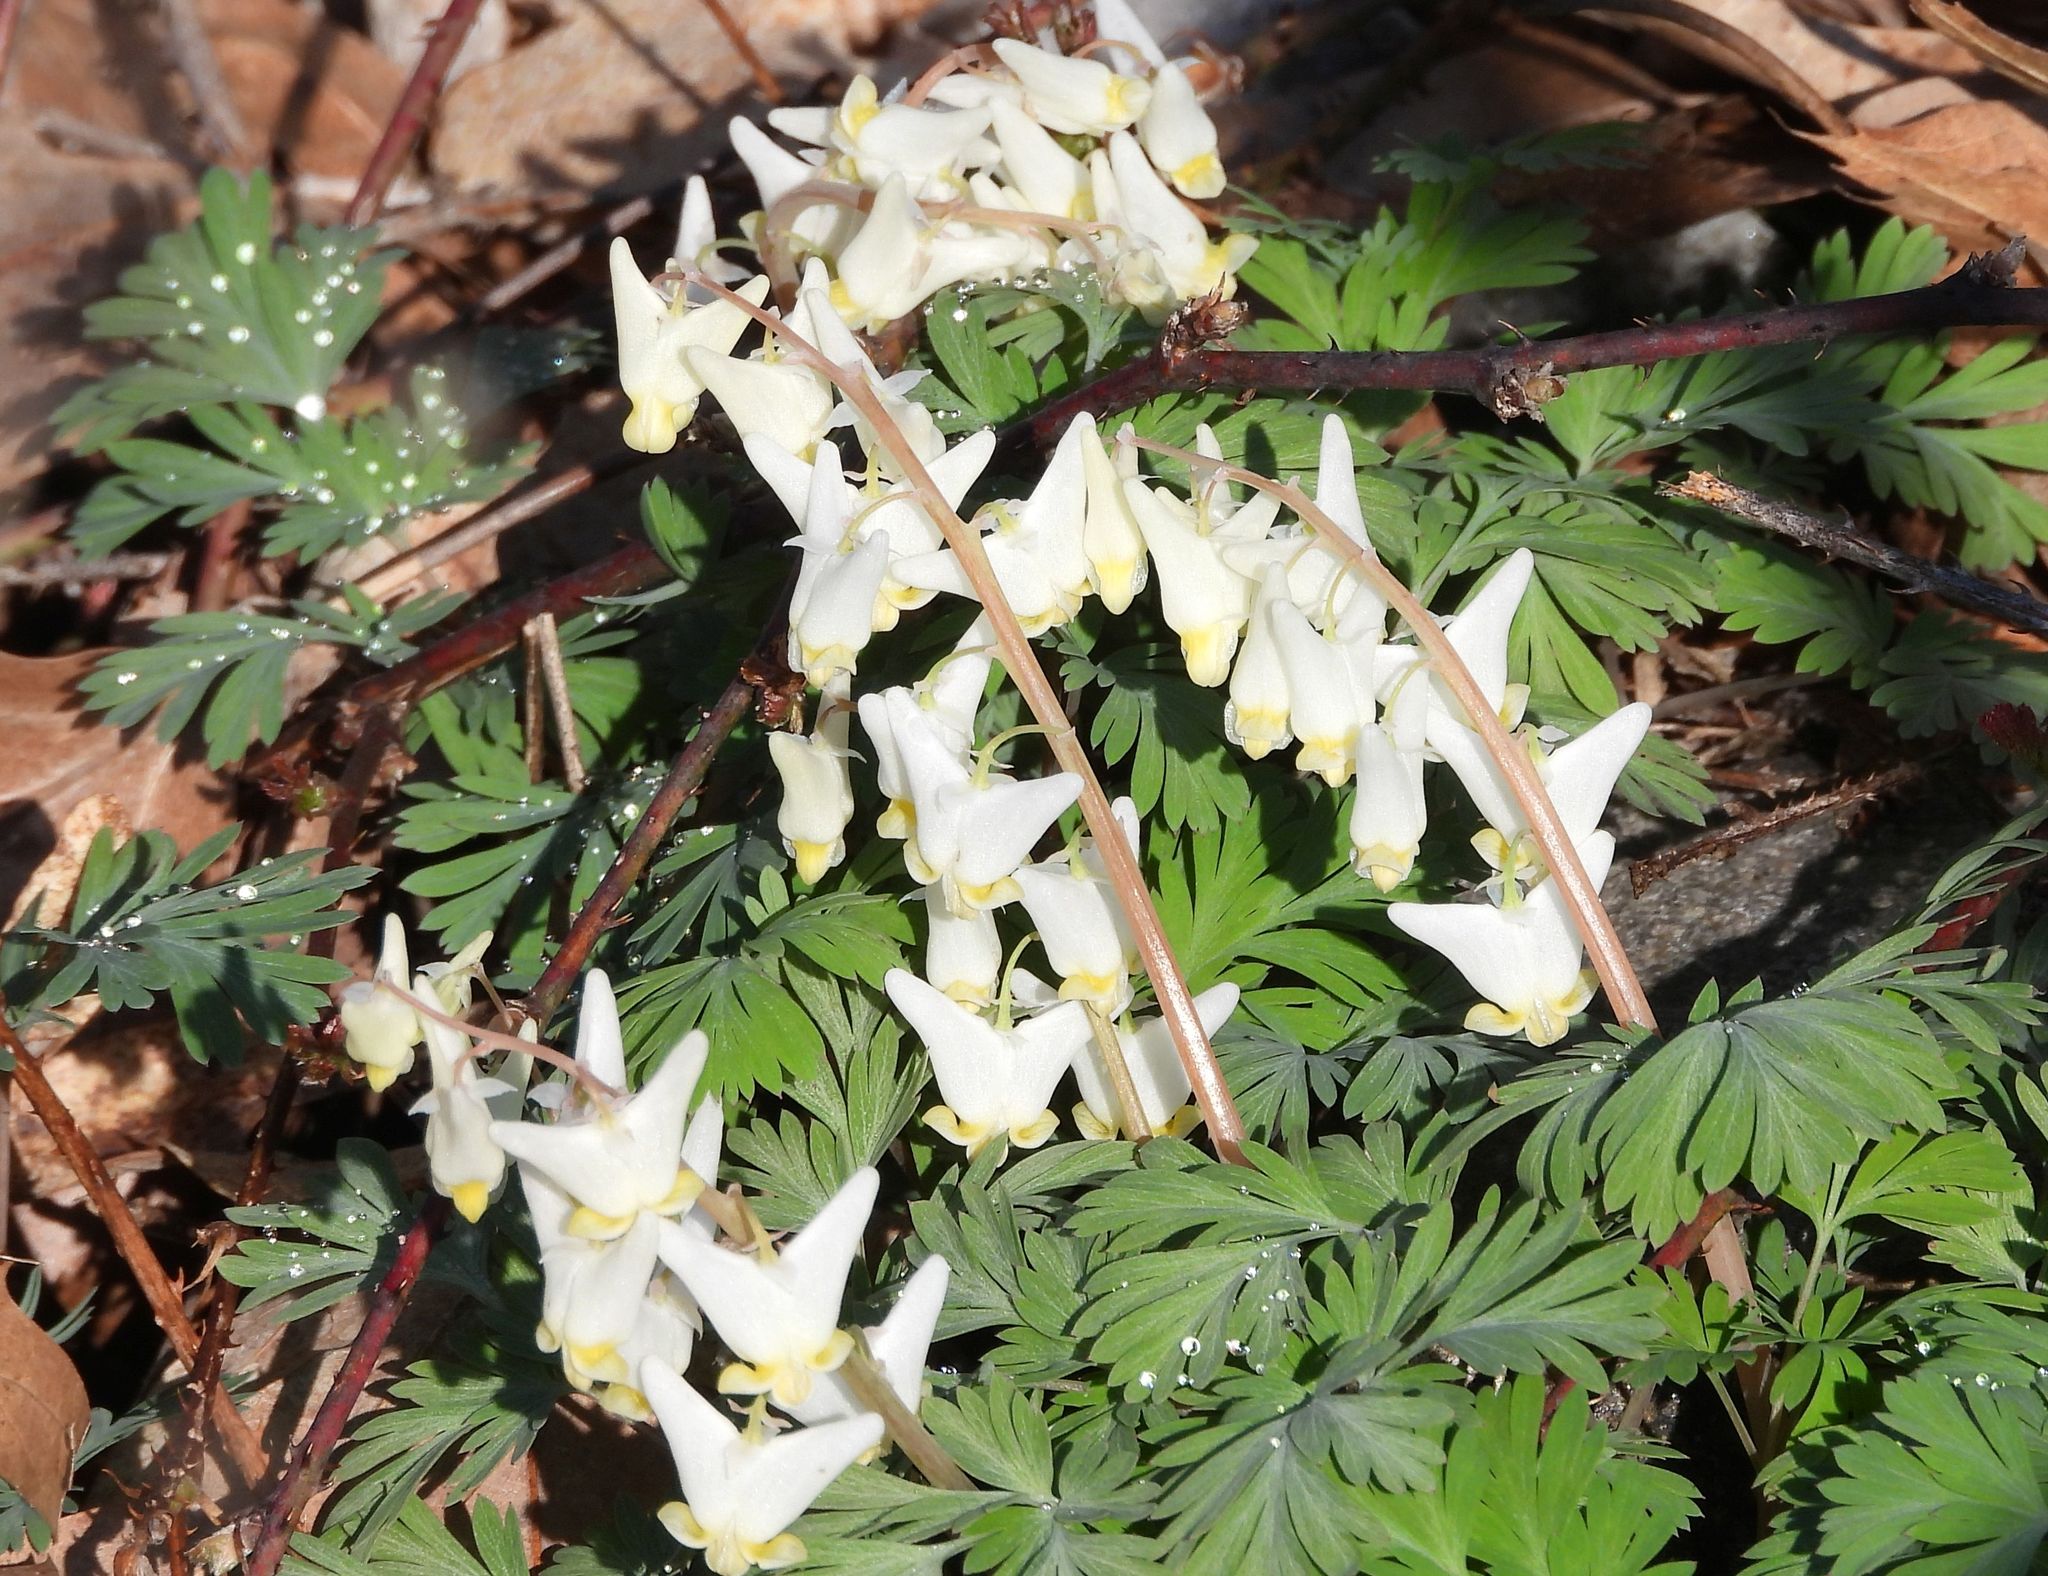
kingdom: Plantae
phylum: Tracheophyta
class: Magnoliopsida
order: Ranunculales
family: Papaveraceae
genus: Dicentra
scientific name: Dicentra cucullaria
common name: Dutchman's breeches
